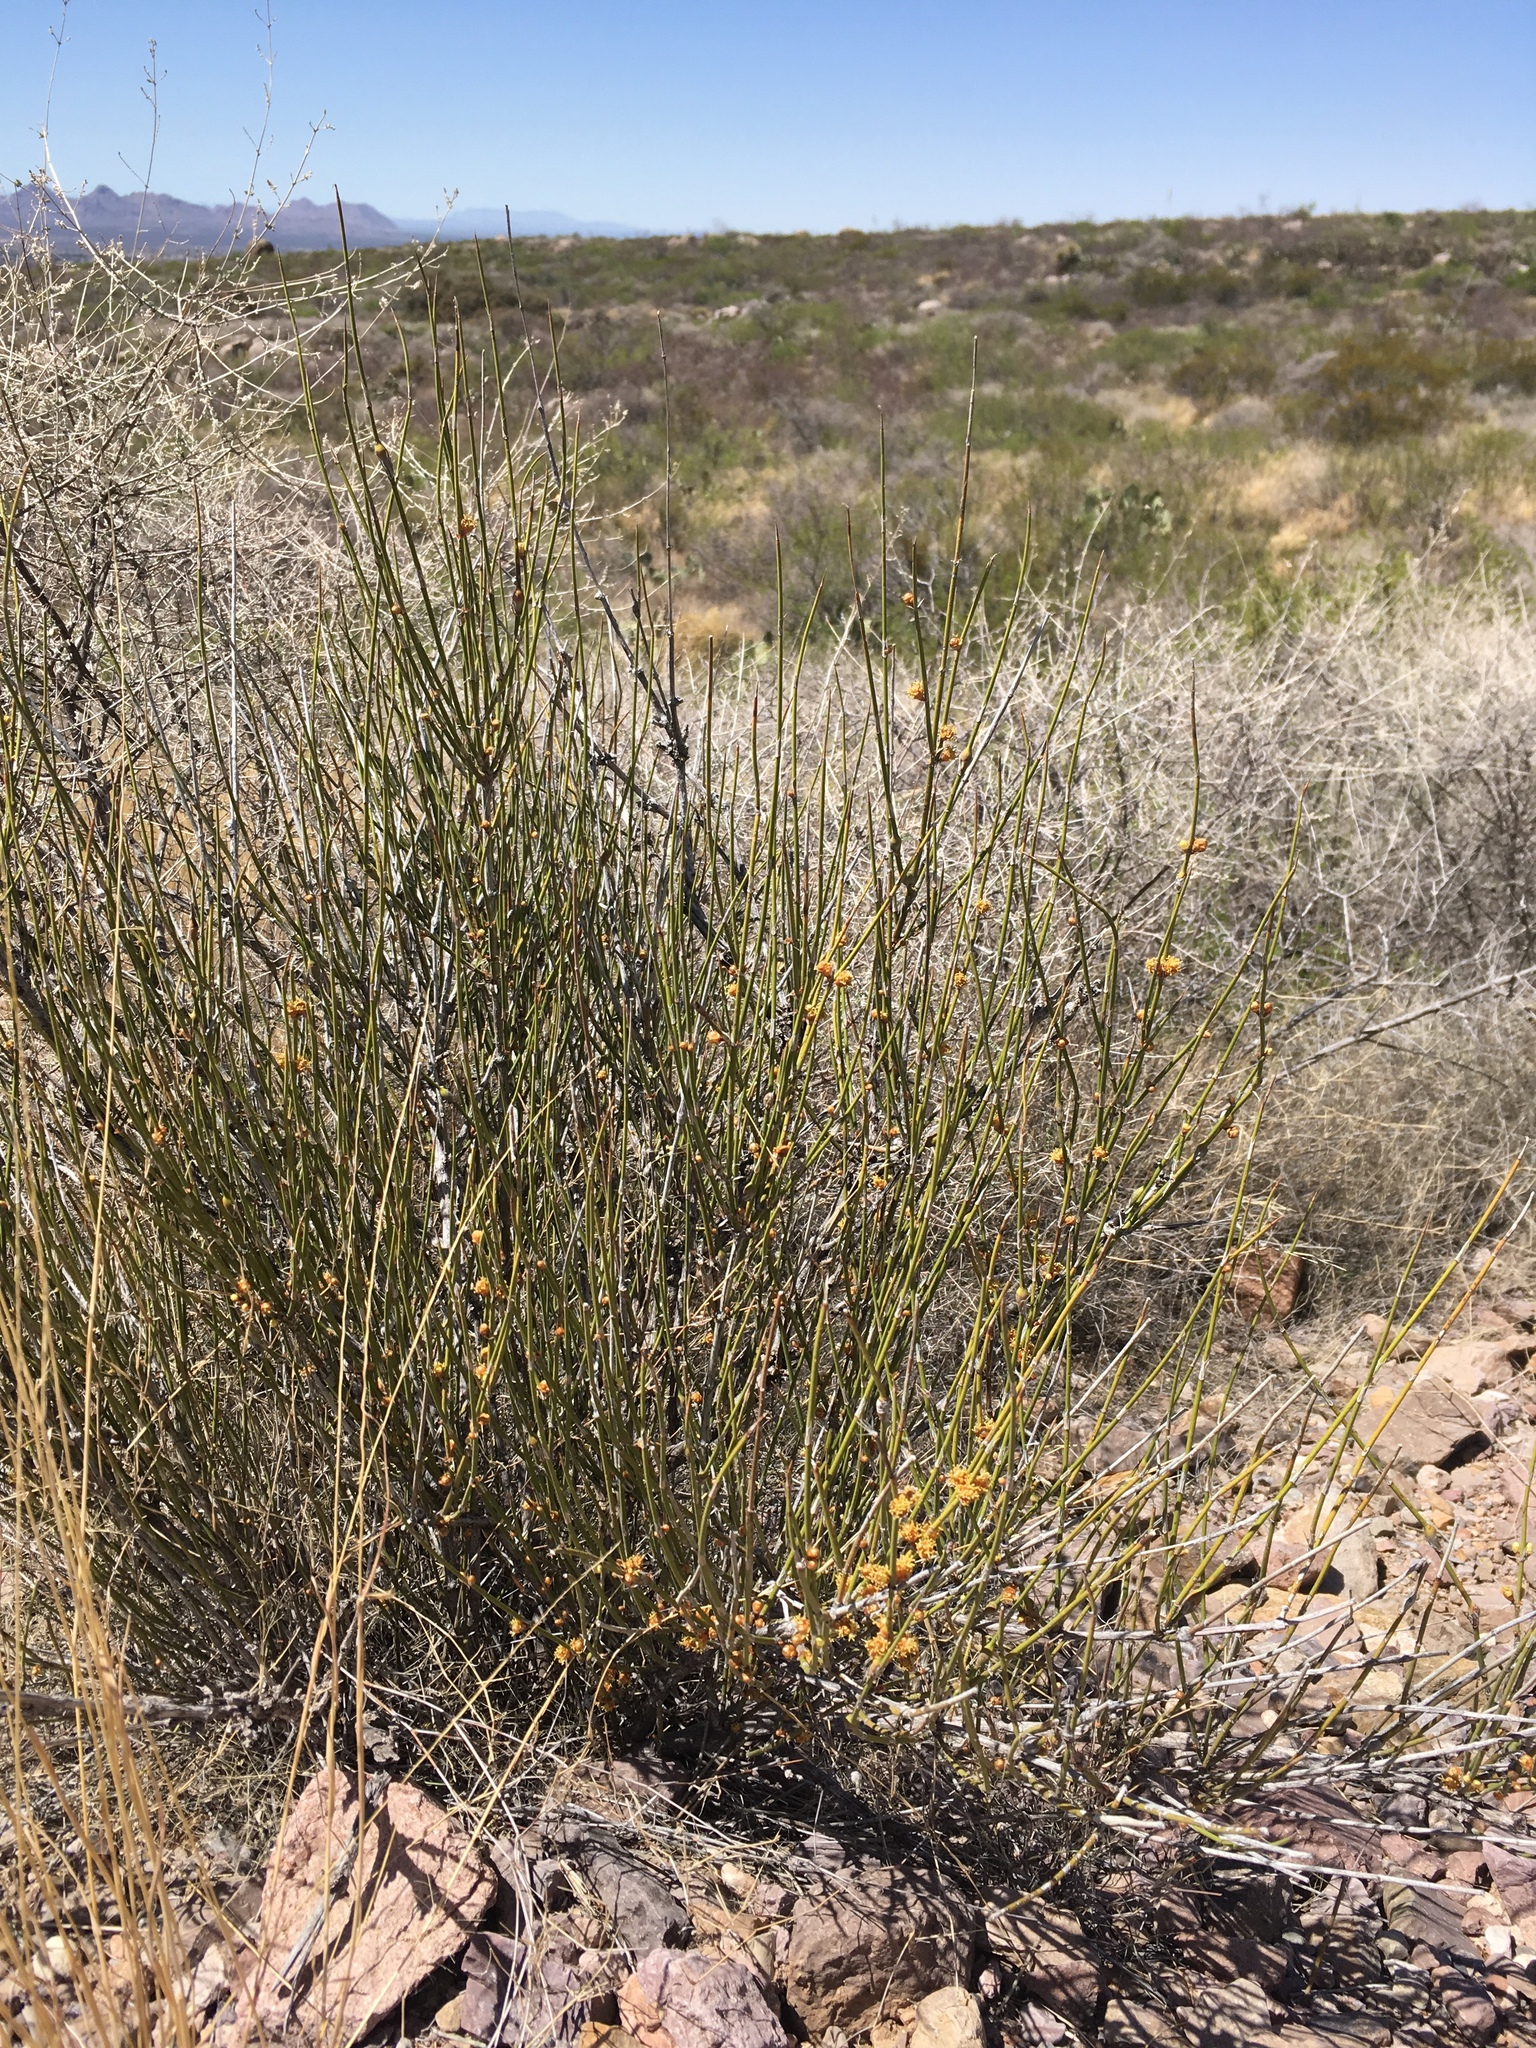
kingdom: Plantae
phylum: Tracheophyta
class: Gnetopsida
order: Ephedrales
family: Ephedraceae
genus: Ephedra
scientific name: Ephedra trifurca
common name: Mexican-tea
